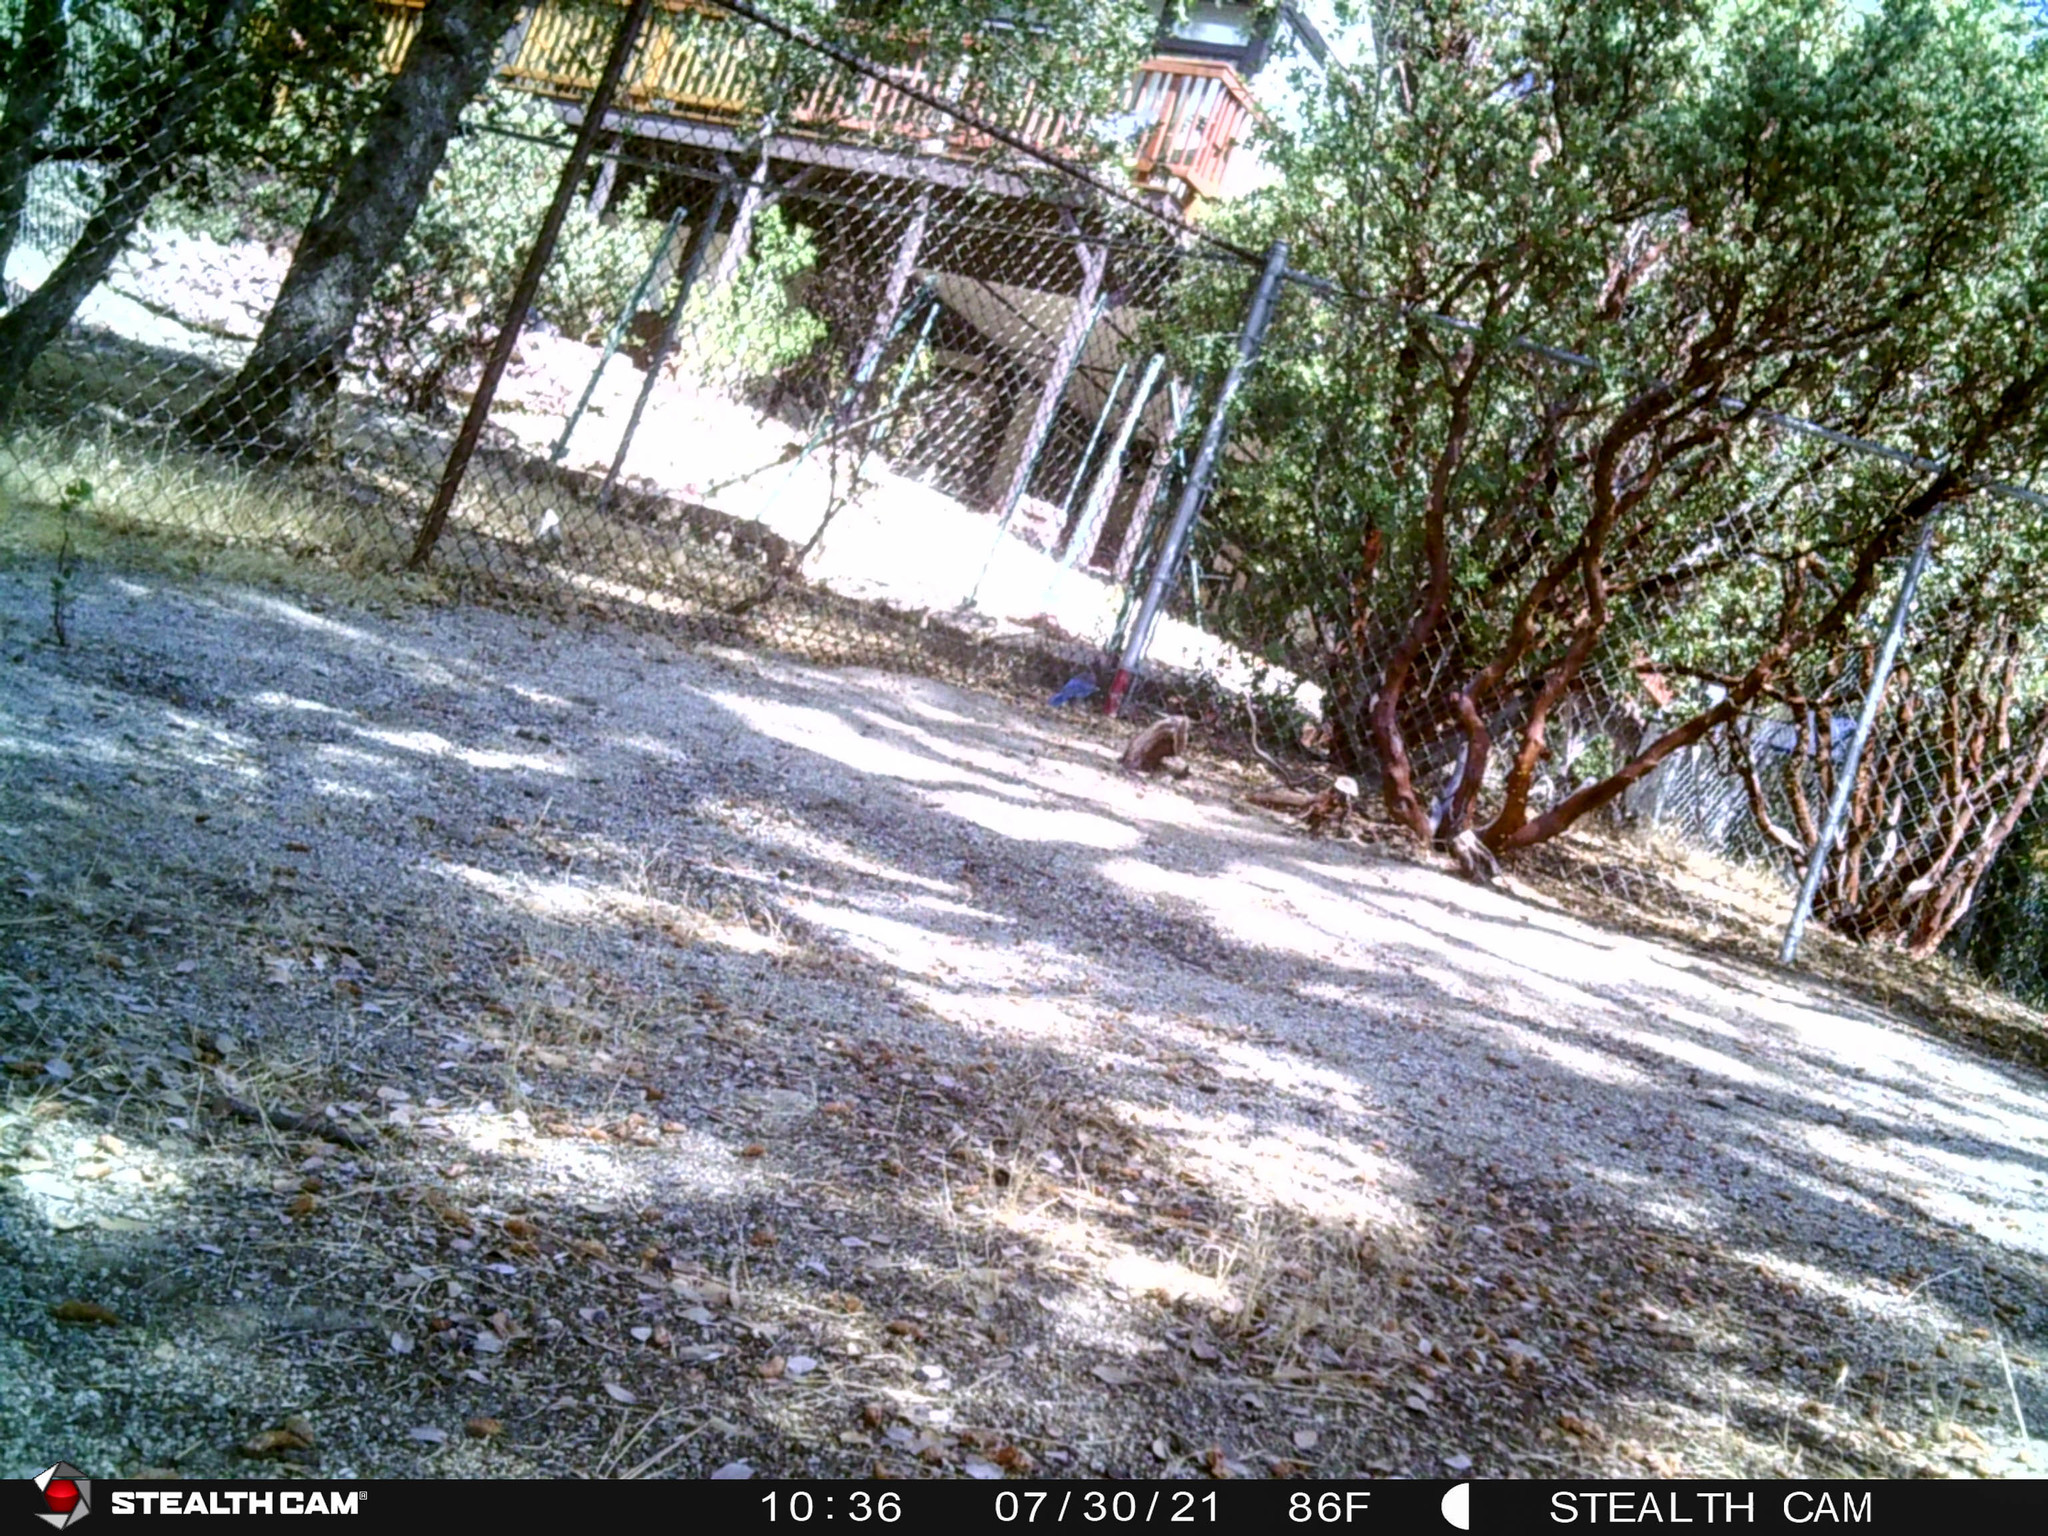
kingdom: Animalia
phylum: Chordata
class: Aves
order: Passeriformes
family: Corvidae
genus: Cyanocitta
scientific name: Cyanocitta stelleri
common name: Steller's jay
